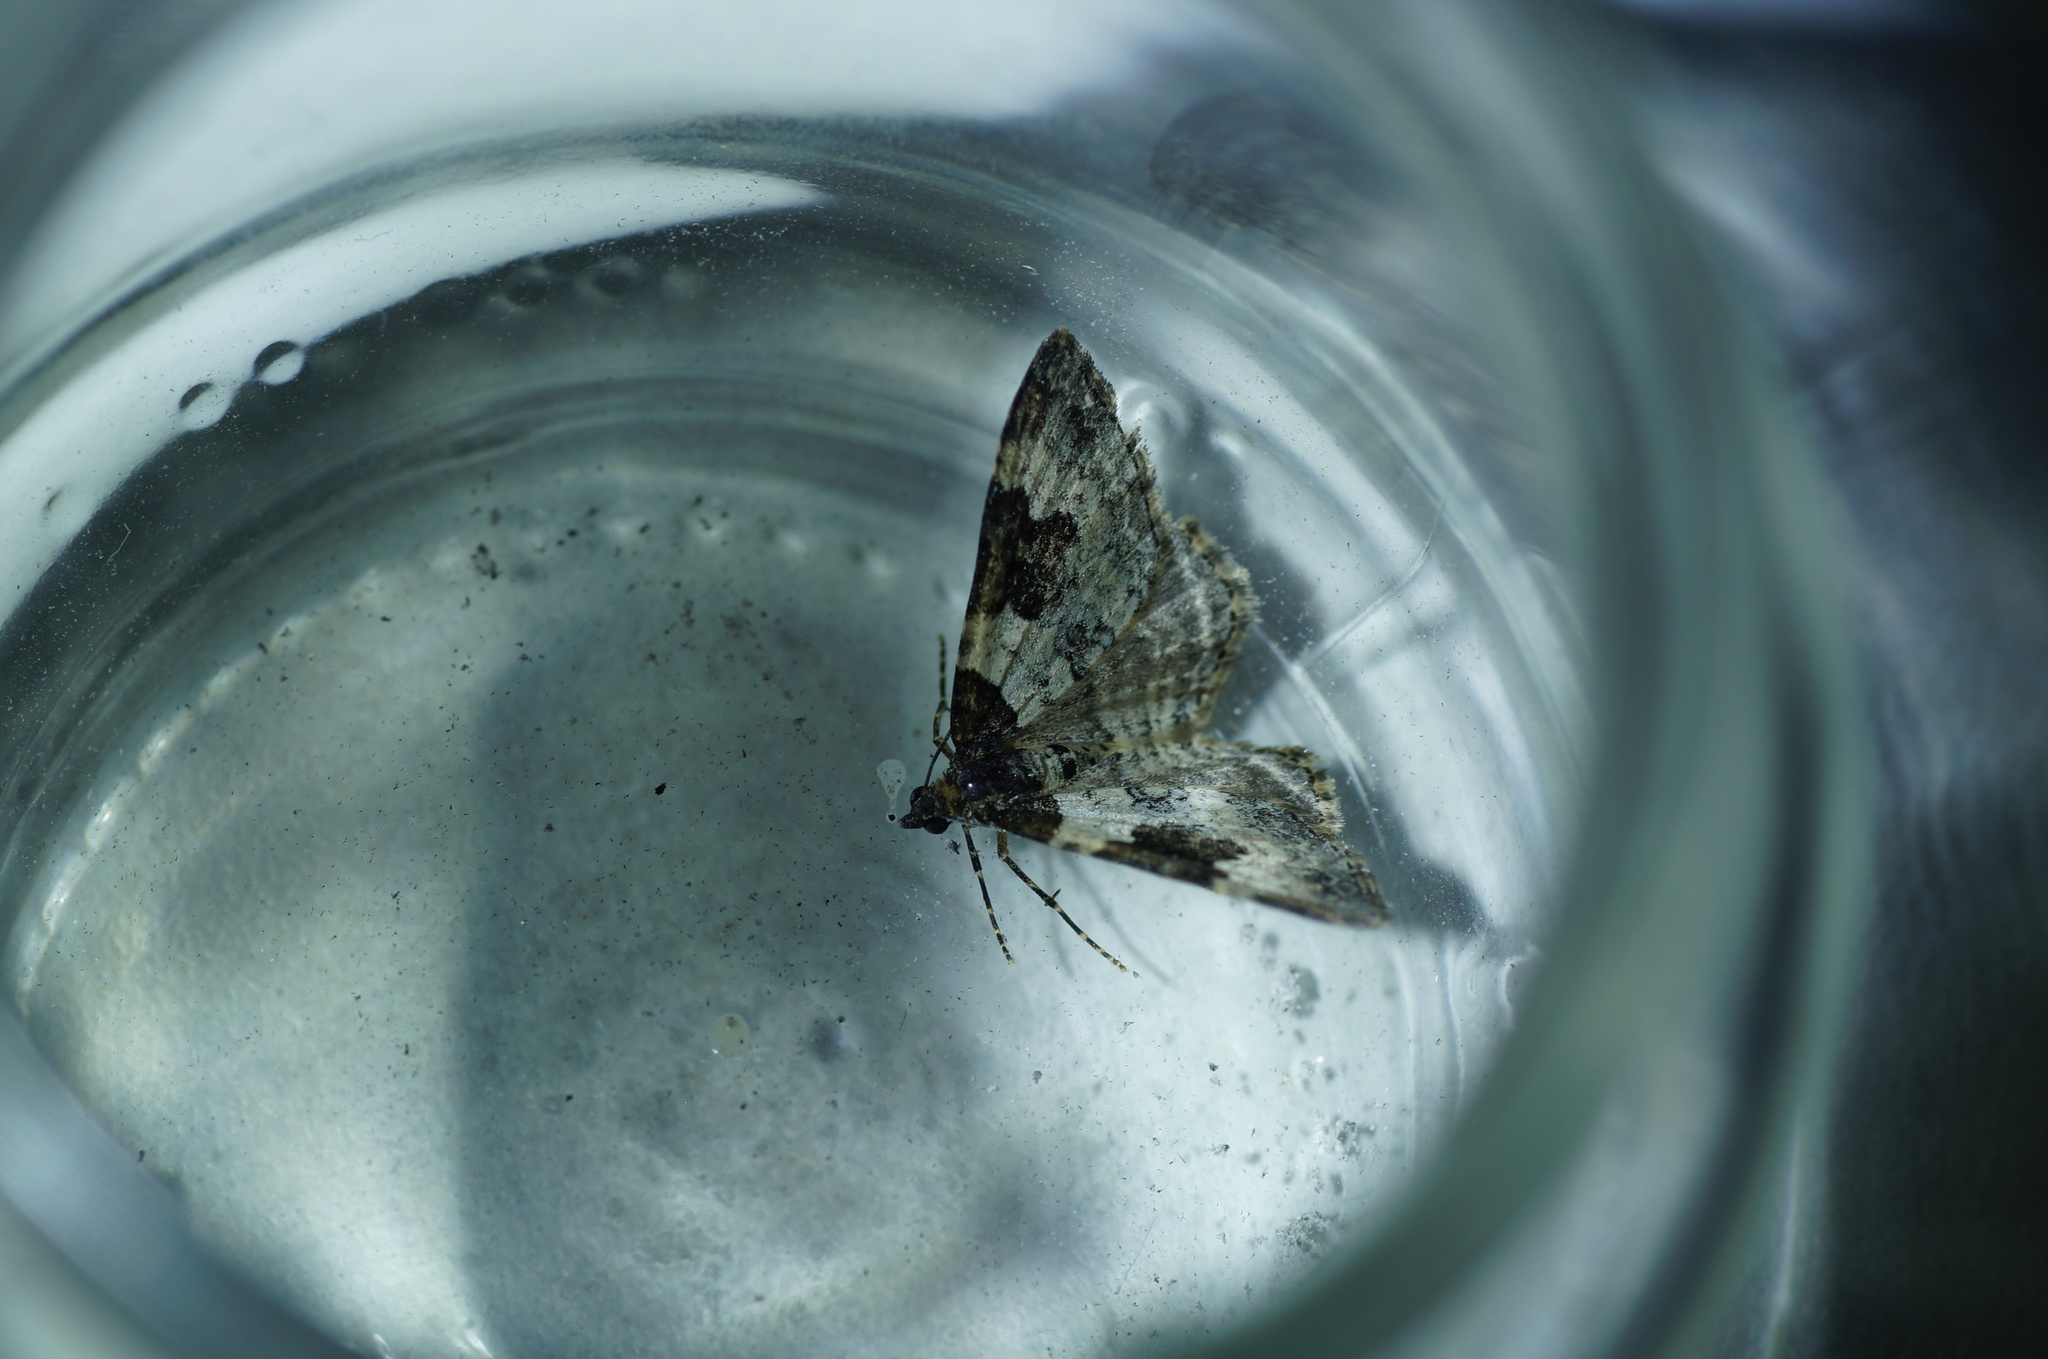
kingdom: Animalia
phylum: Arthropoda
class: Insecta
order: Lepidoptera
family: Geometridae
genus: Xanthorhoe
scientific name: Xanthorhoe fluctuata
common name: Garden carpet
